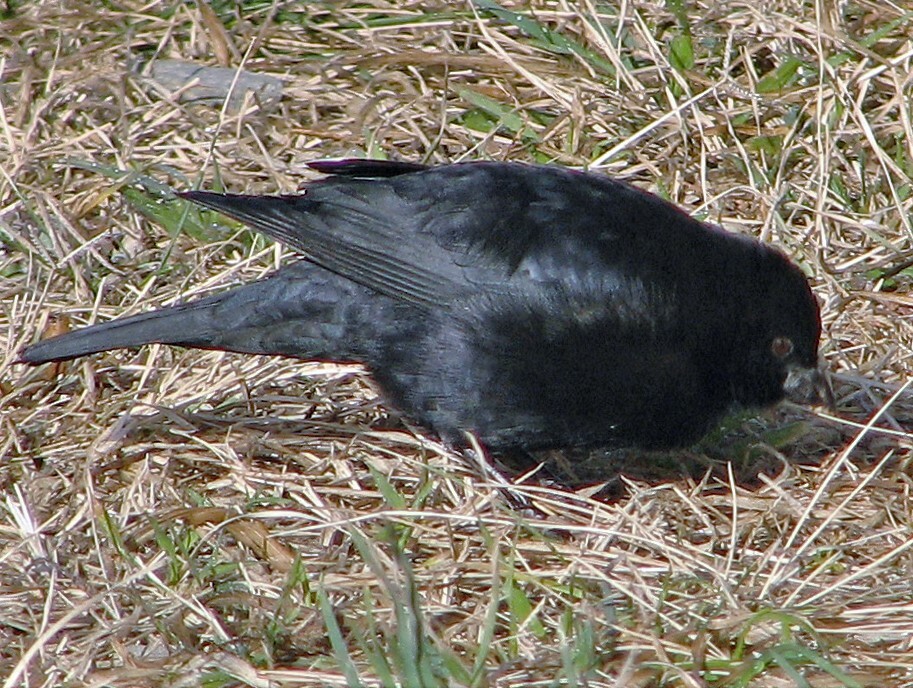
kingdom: Animalia
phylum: Chordata
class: Aves
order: Passeriformes
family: Icteridae
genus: Molothrus
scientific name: Molothrus rufoaxillaris
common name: Screaming cowbird
